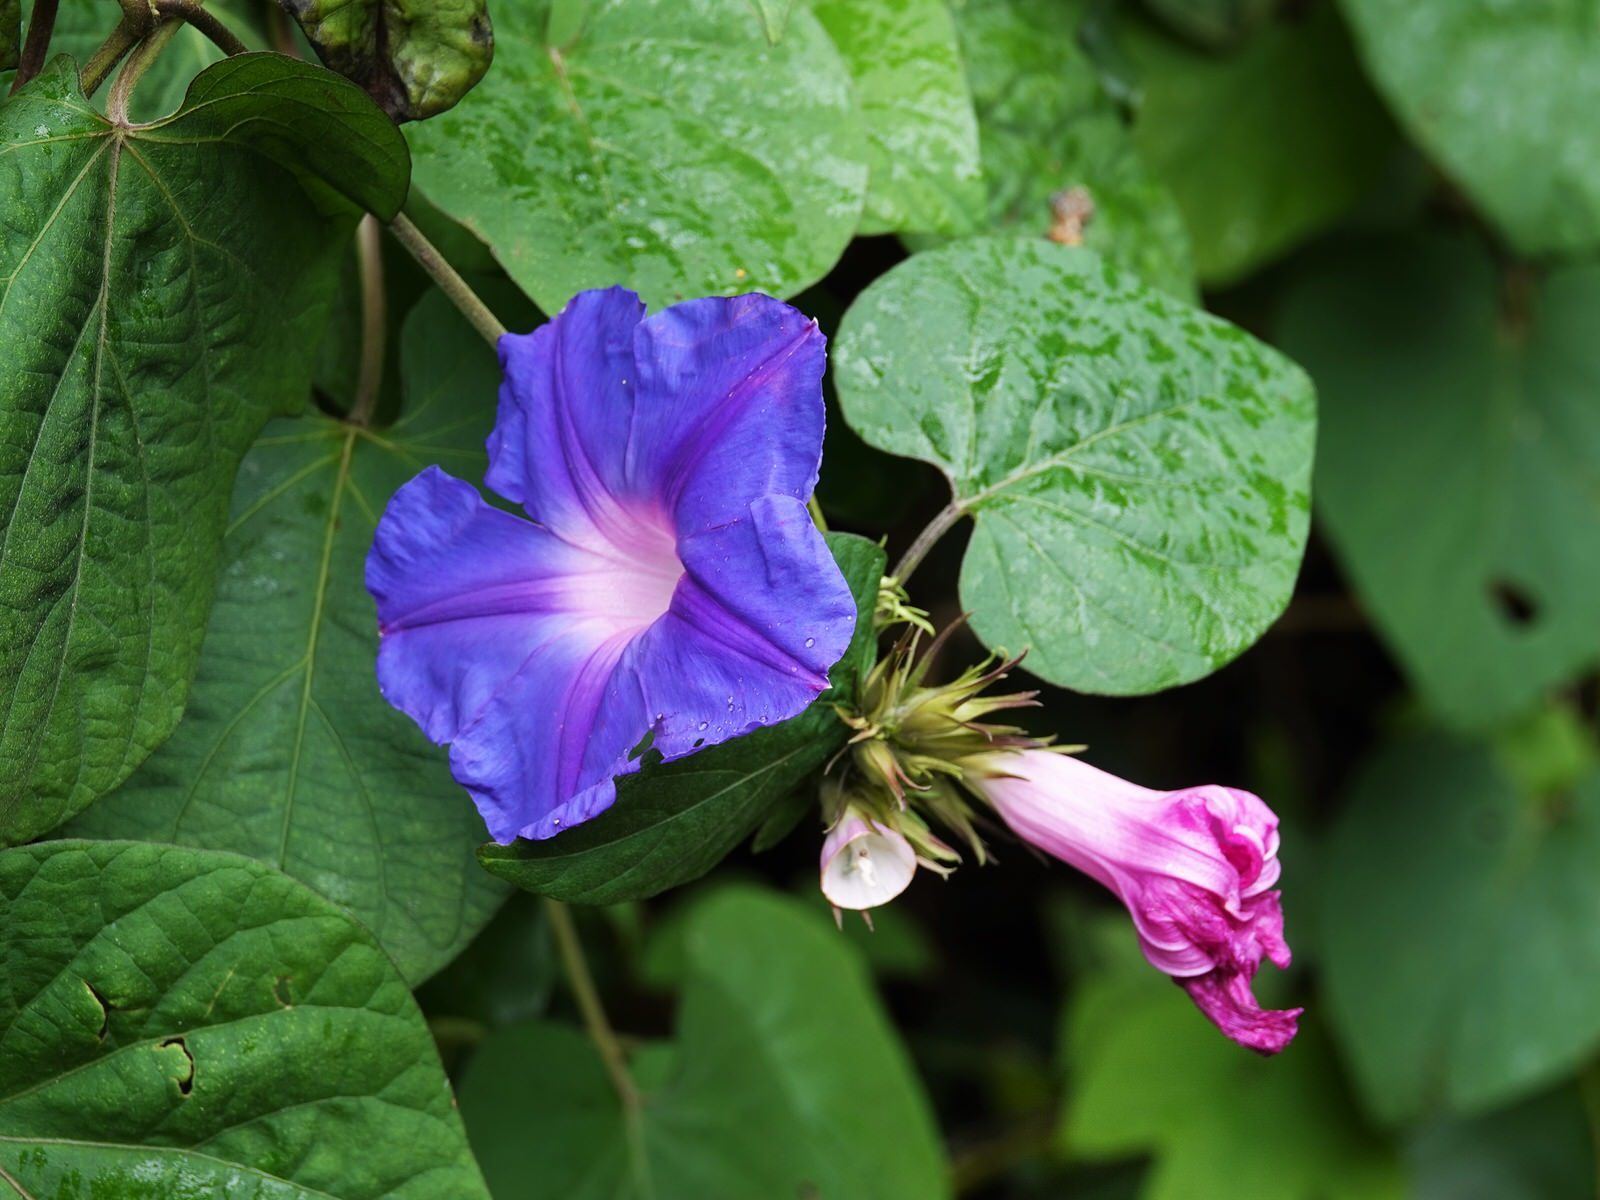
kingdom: Plantae
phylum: Tracheophyta
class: Magnoliopsida
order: Solanales
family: Convolvulaceae
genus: Ipomoea
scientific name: Ipomoea indica
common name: Blue dawnflower
